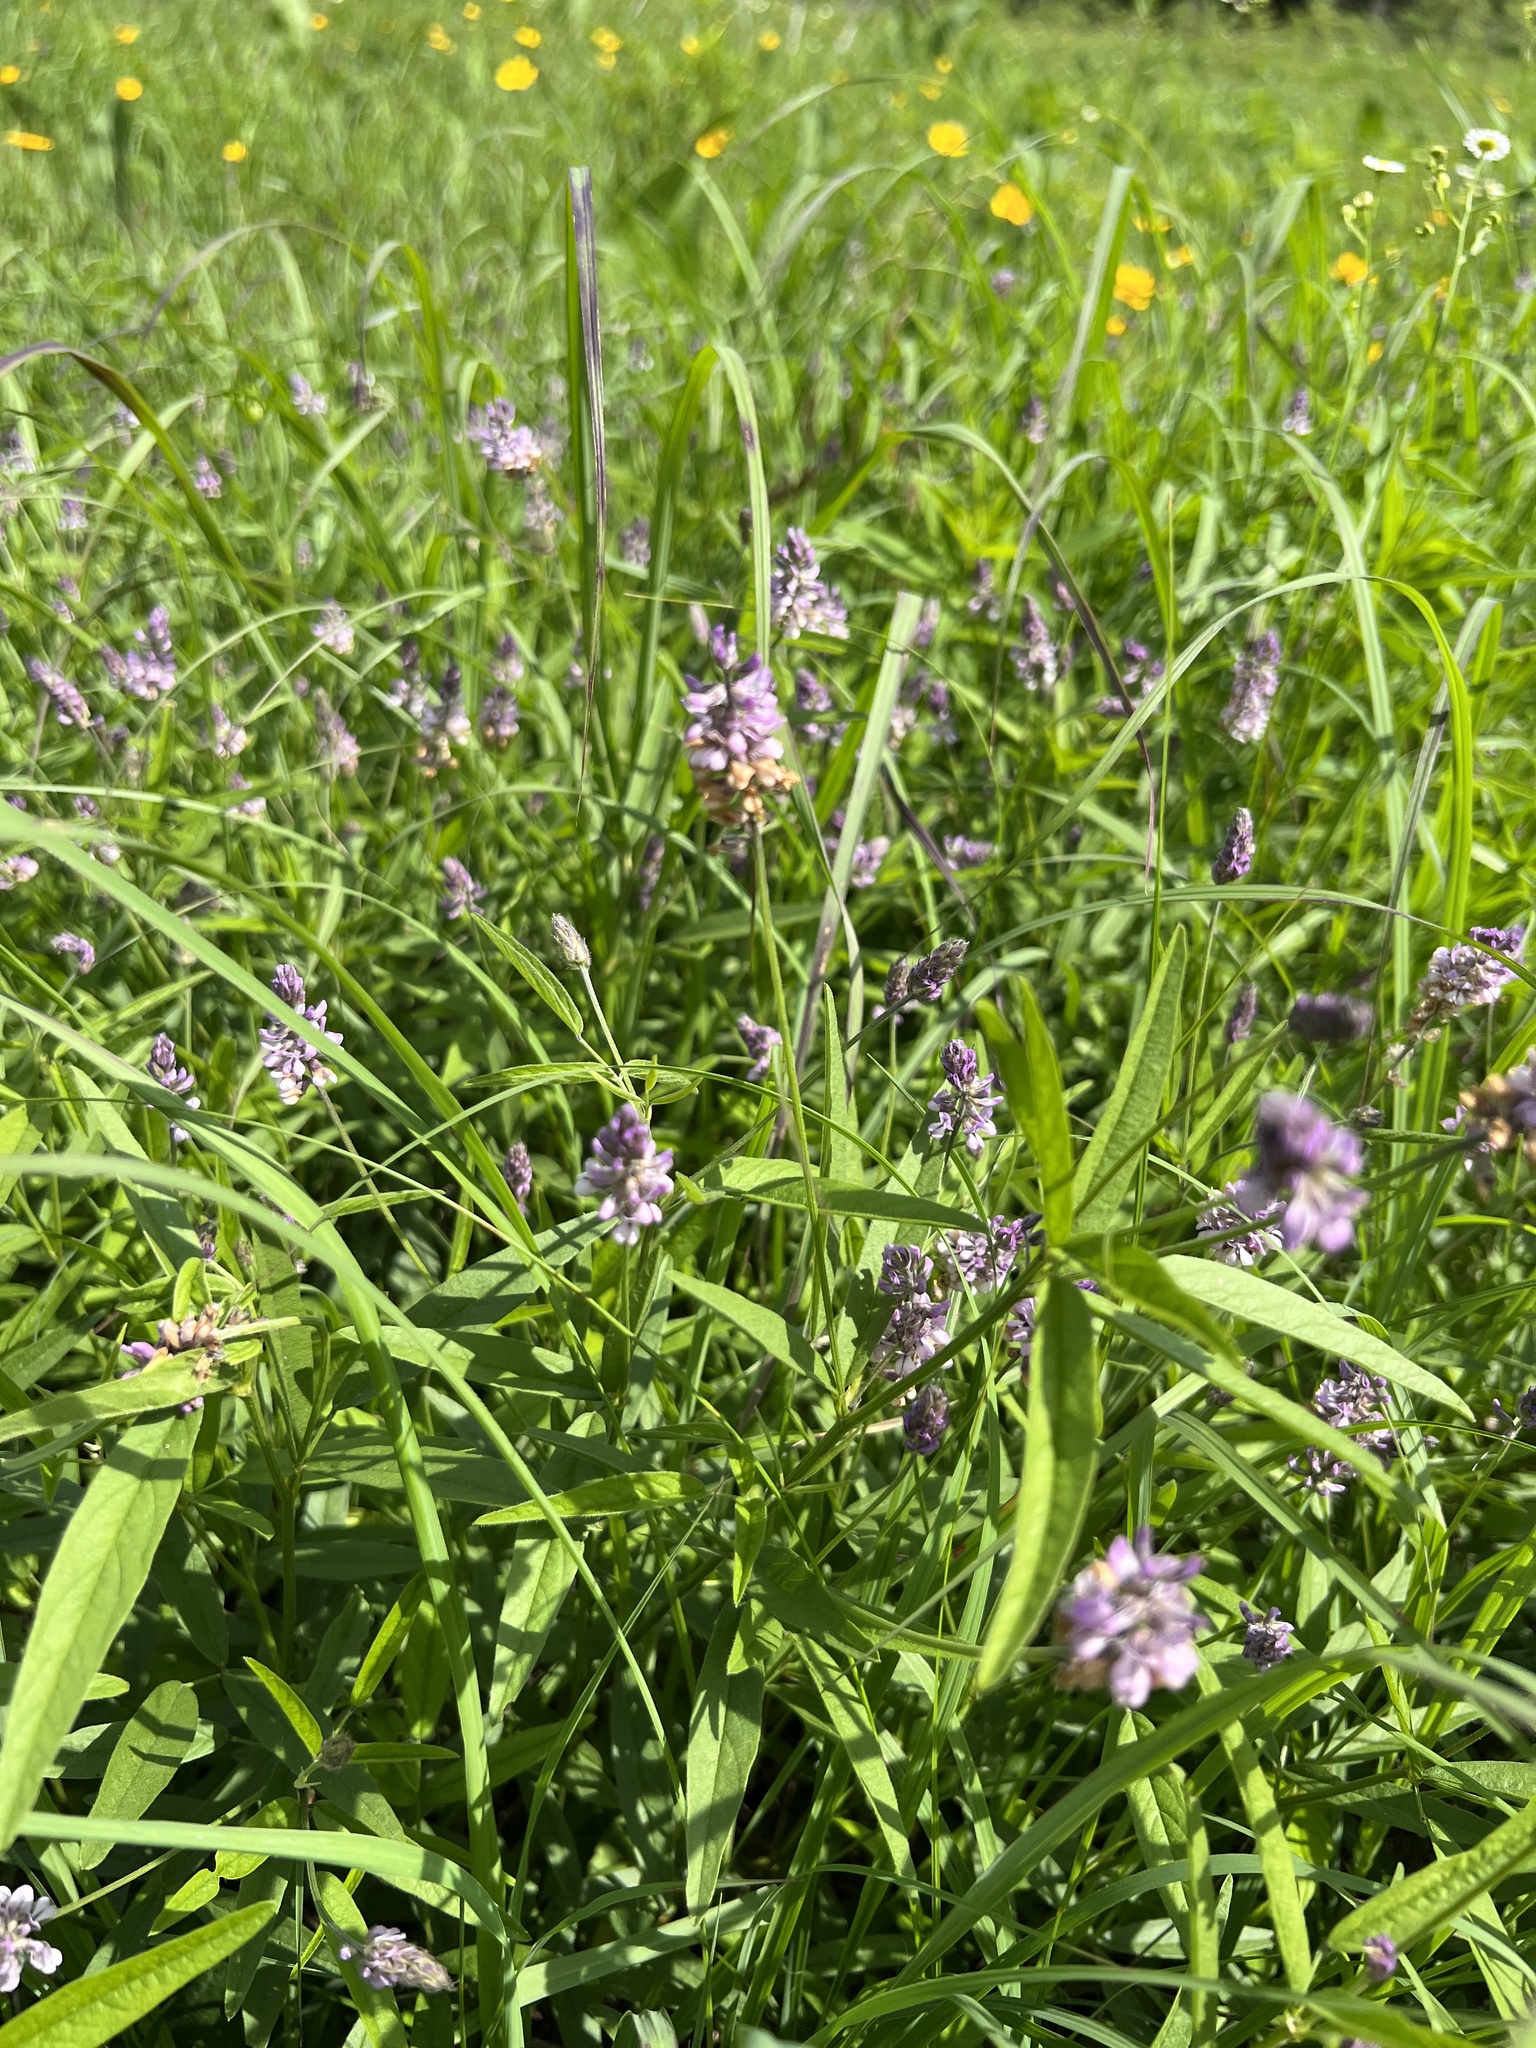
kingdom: Plantae
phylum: Tracheophyta
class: Magnoliopsida
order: Fabales
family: Fabaceae
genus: Orbexilum
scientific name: Orbexilum pedunculatum
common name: Sampson's snakeroot
